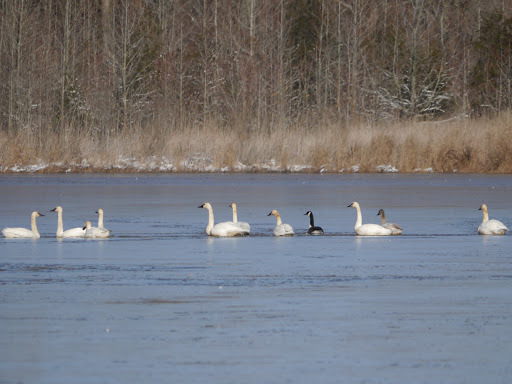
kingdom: Animalia
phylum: Chordata
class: Aves
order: Anseriformes
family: Anatidae
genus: Cygnus
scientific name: Cygnus columbianus
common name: Tundra swan
